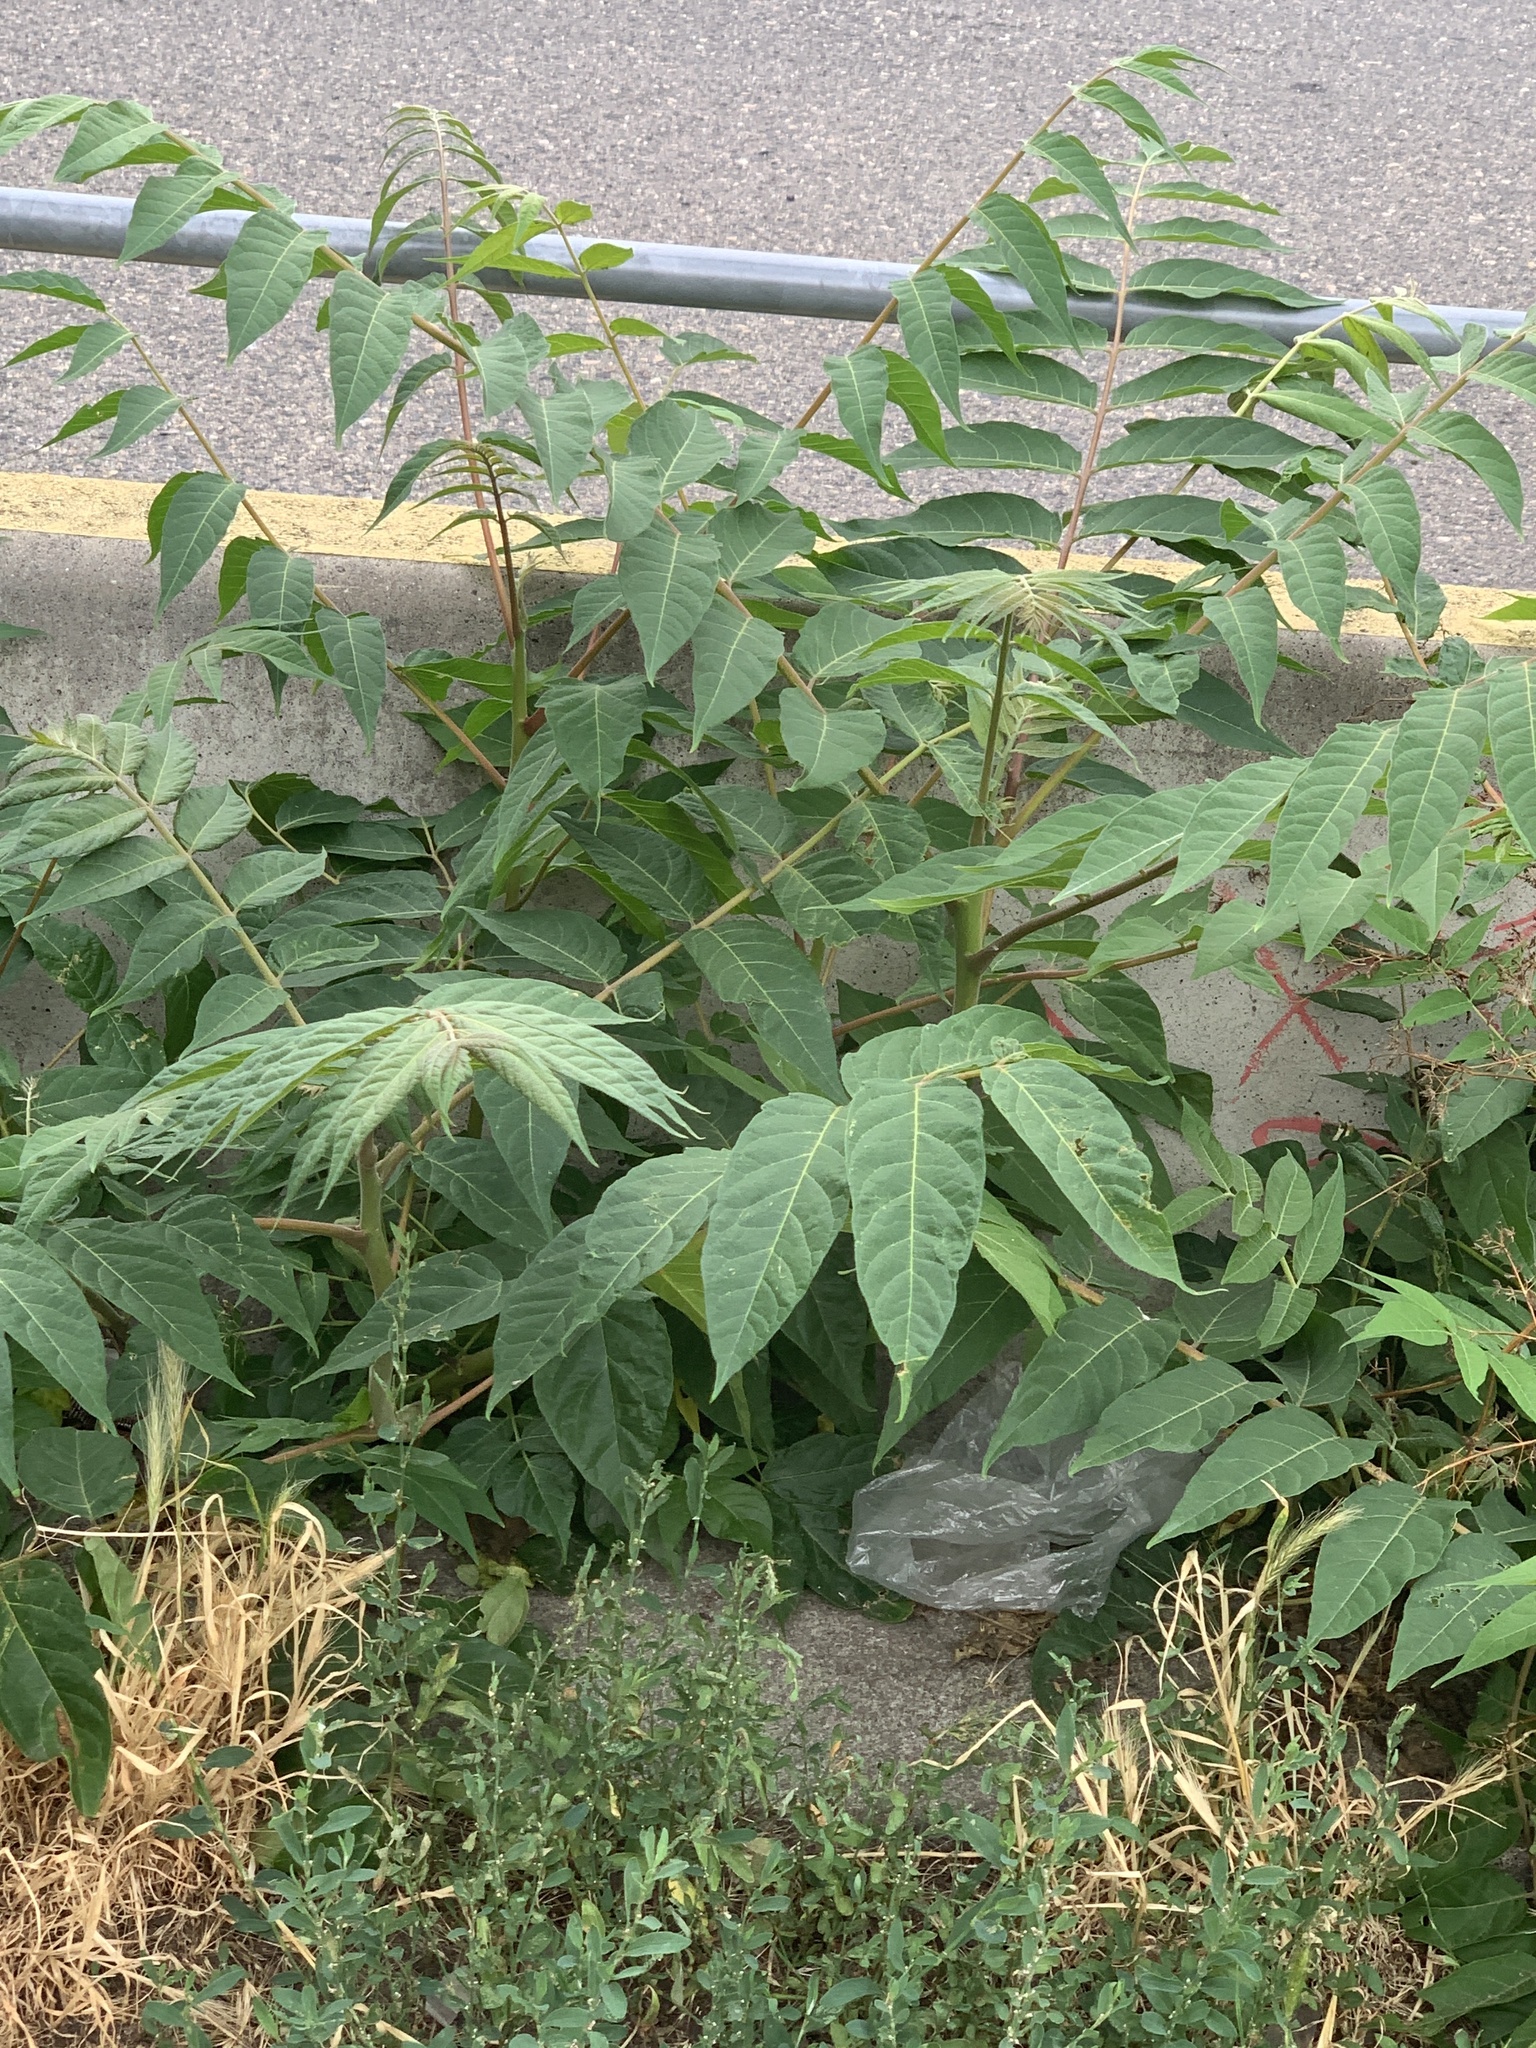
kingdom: Plantae
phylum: Tracheophyta
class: Magnoliopsida
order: Sapindales
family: Simaroubaceae
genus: Ailanthus
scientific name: Ailanthus altissima
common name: Tree-of-heaven
